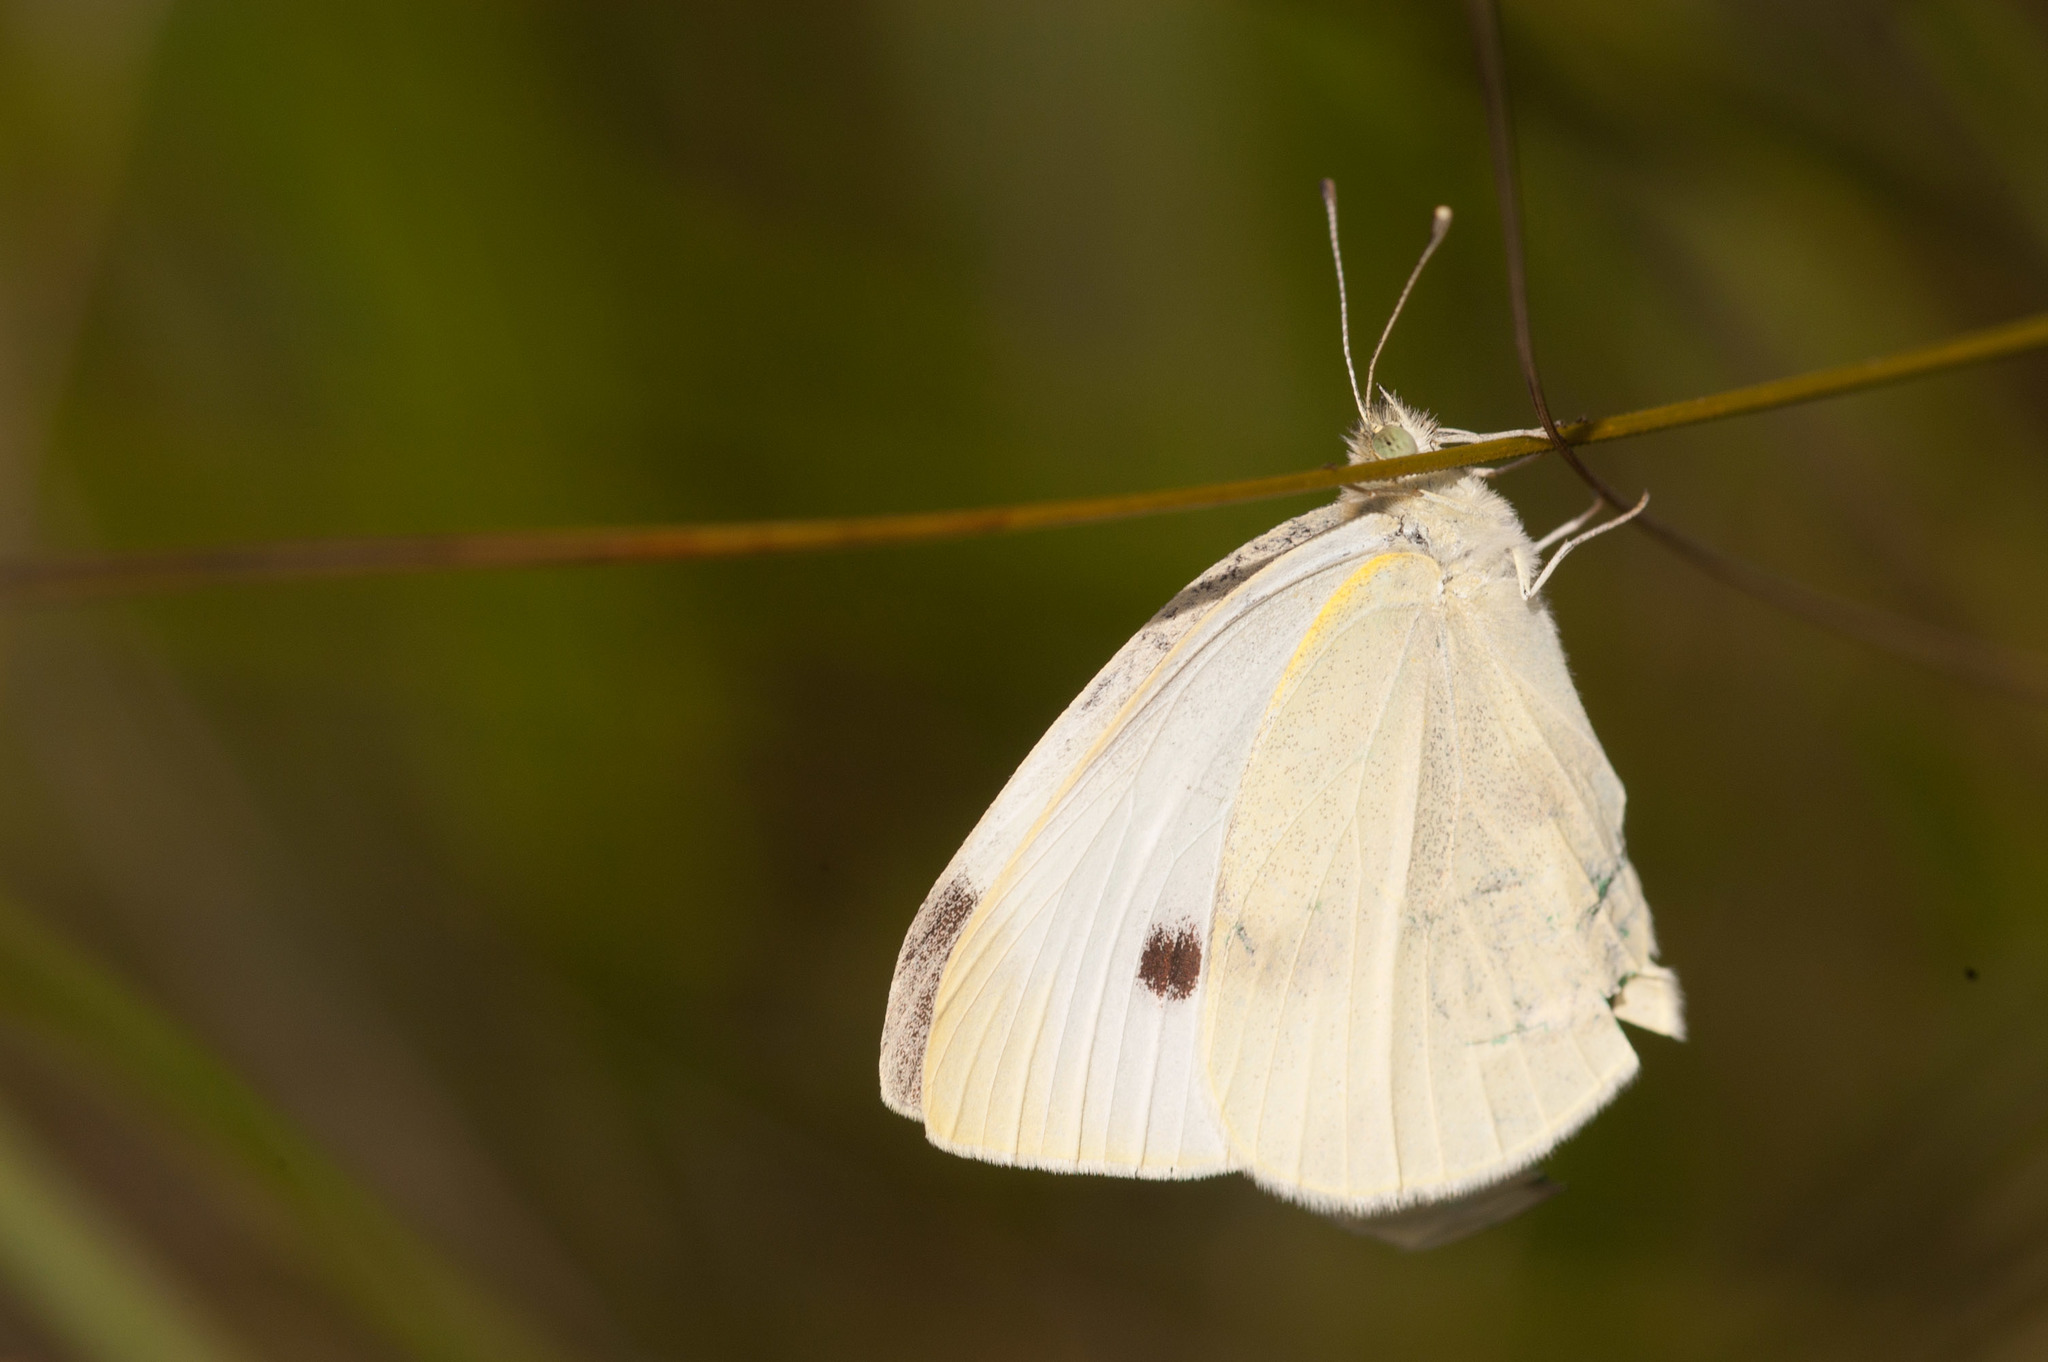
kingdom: Animalia
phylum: Arthropoda
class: Insecta
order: Lepidoptera
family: Pieridae
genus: Pieris
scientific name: Pieris rapae
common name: Small white
